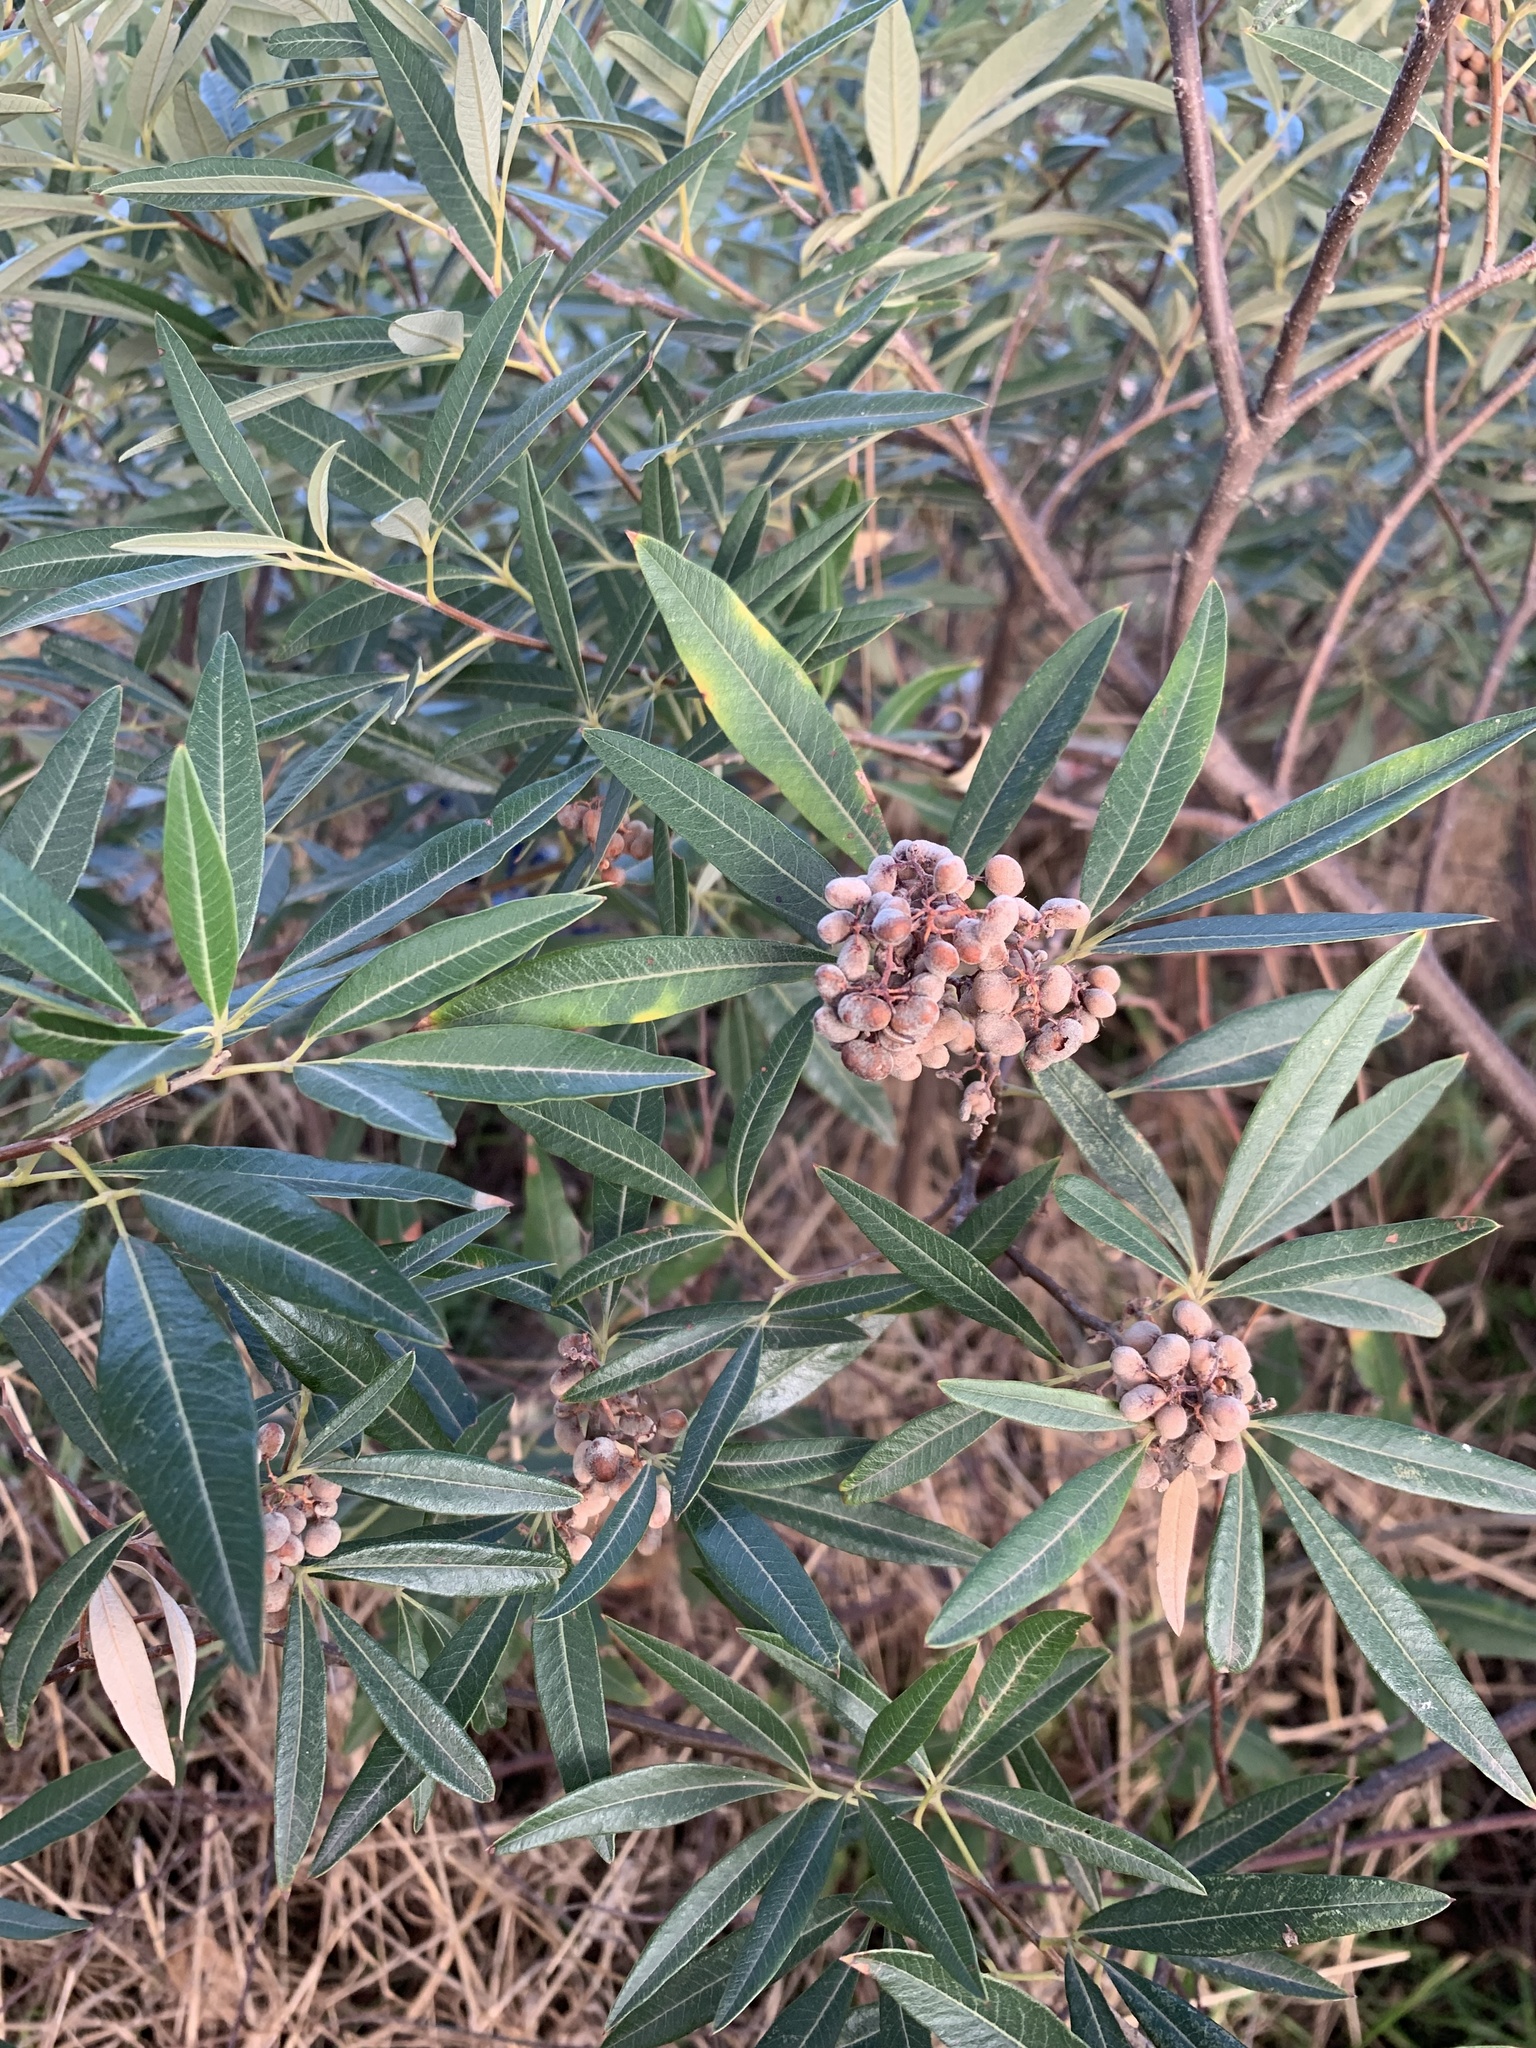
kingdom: Plantae
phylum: Tracheophyta
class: Magnoliopsida
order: Sapindales
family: Anacardiaceae
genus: Searsia
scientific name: Searsia angustifolia
